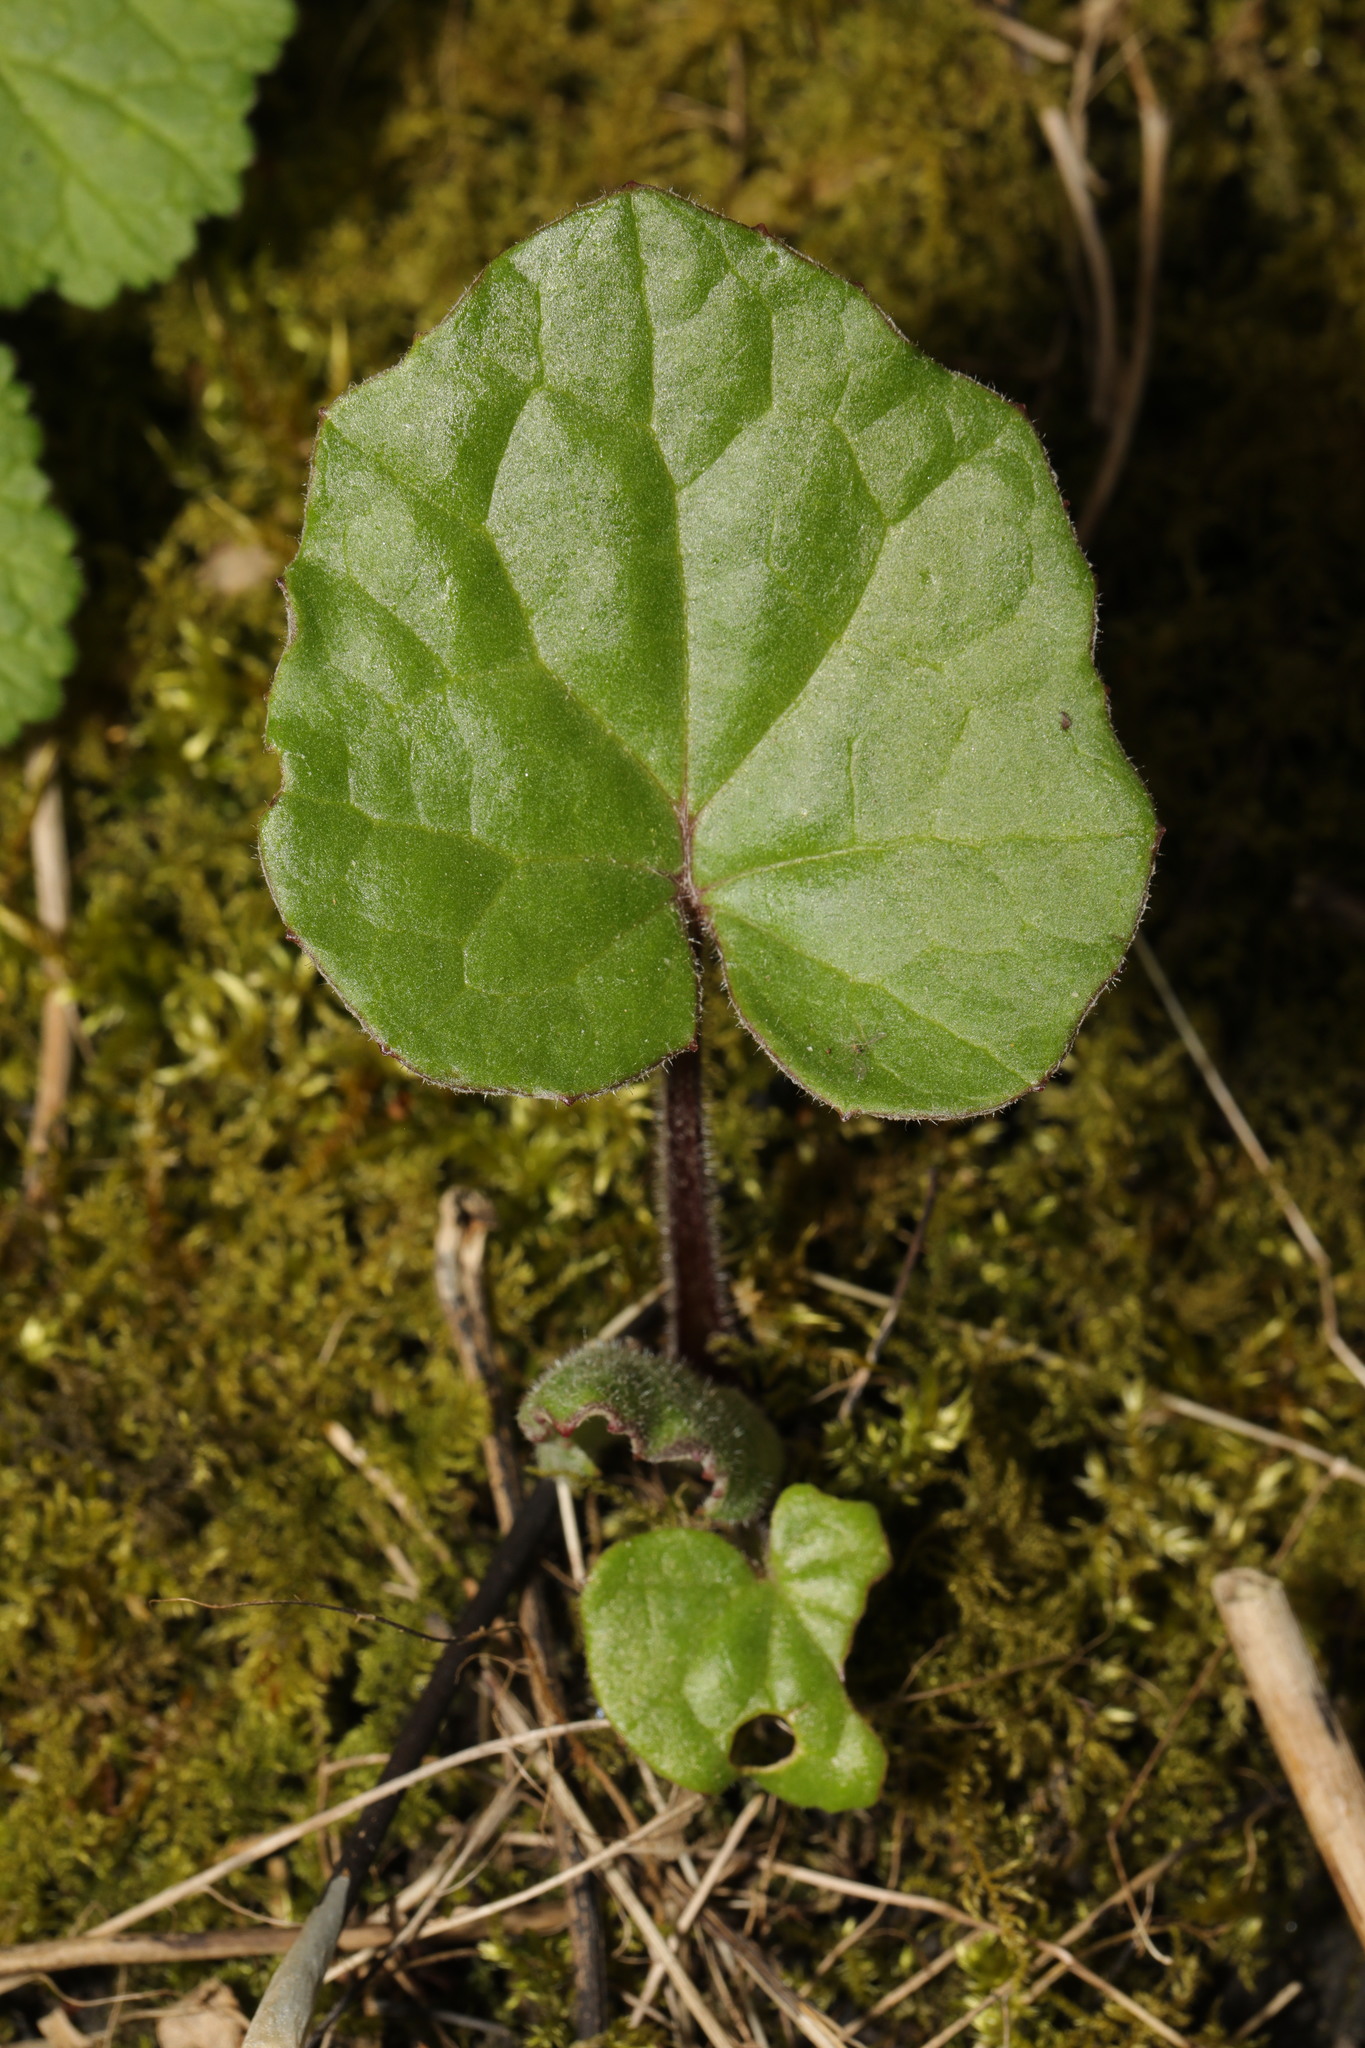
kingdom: Plantae
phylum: Tracheophyta
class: Magnoliopsida
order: Asterales
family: Asteraceae
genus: Tussilago
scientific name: Tussilago farfara
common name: Coltsfoot
